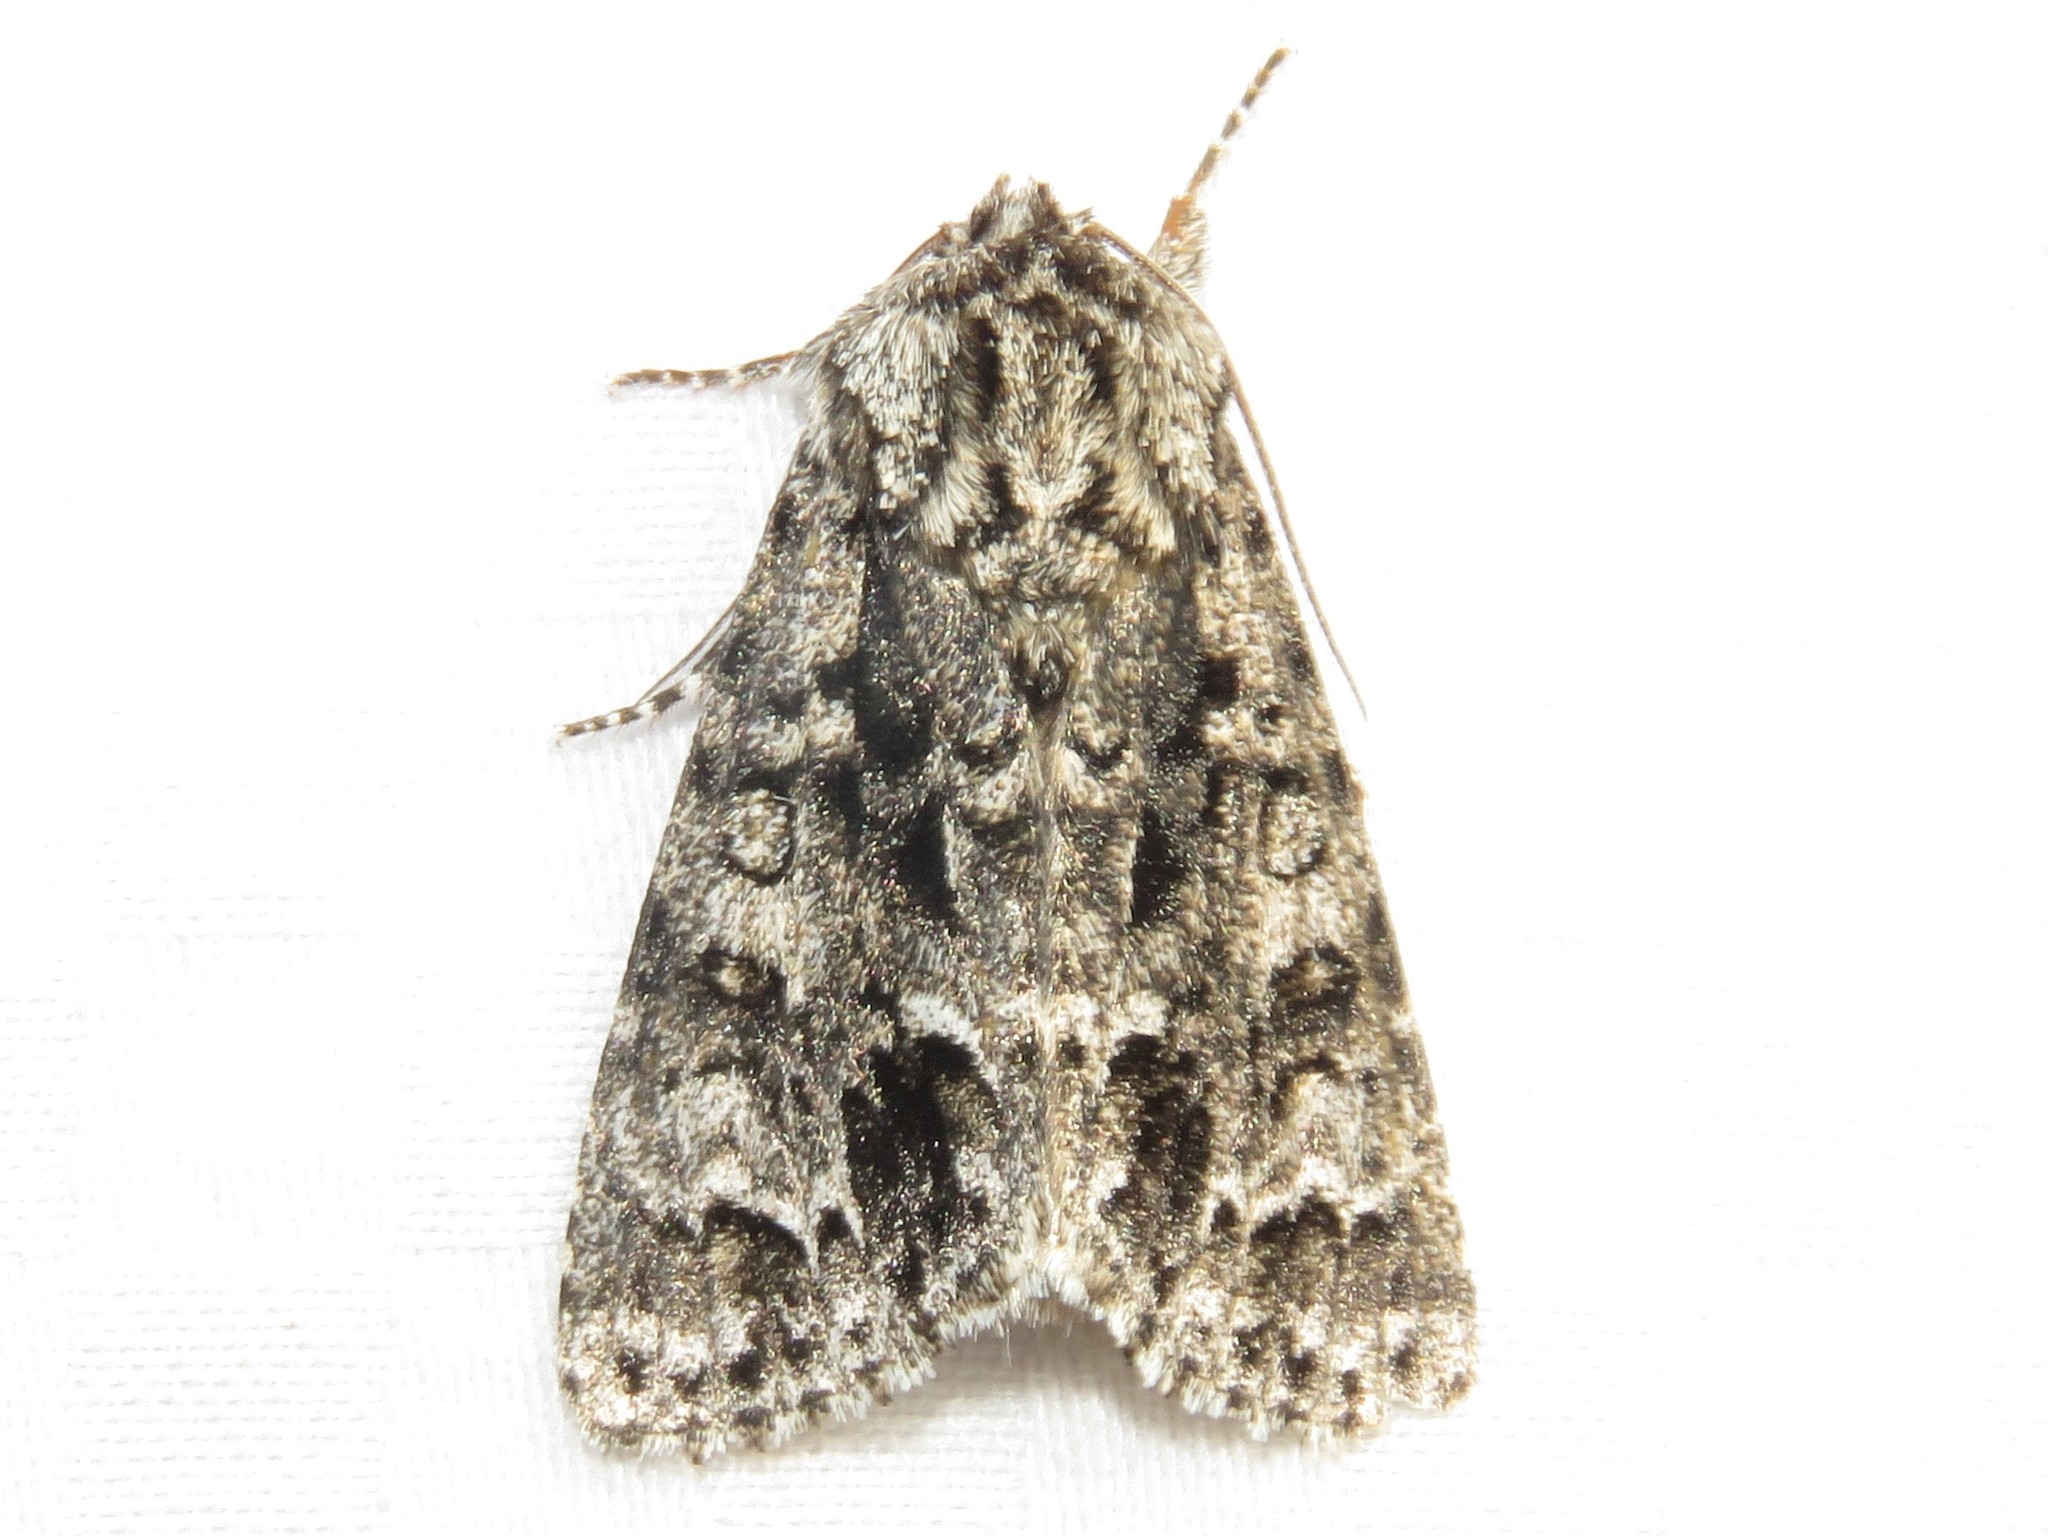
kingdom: Animalia
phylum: Arthropoda
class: Insecta
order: Lepidoptera
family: Noctuidae
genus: Acronicta
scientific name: Acronicta impressa
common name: Impressed dagger
